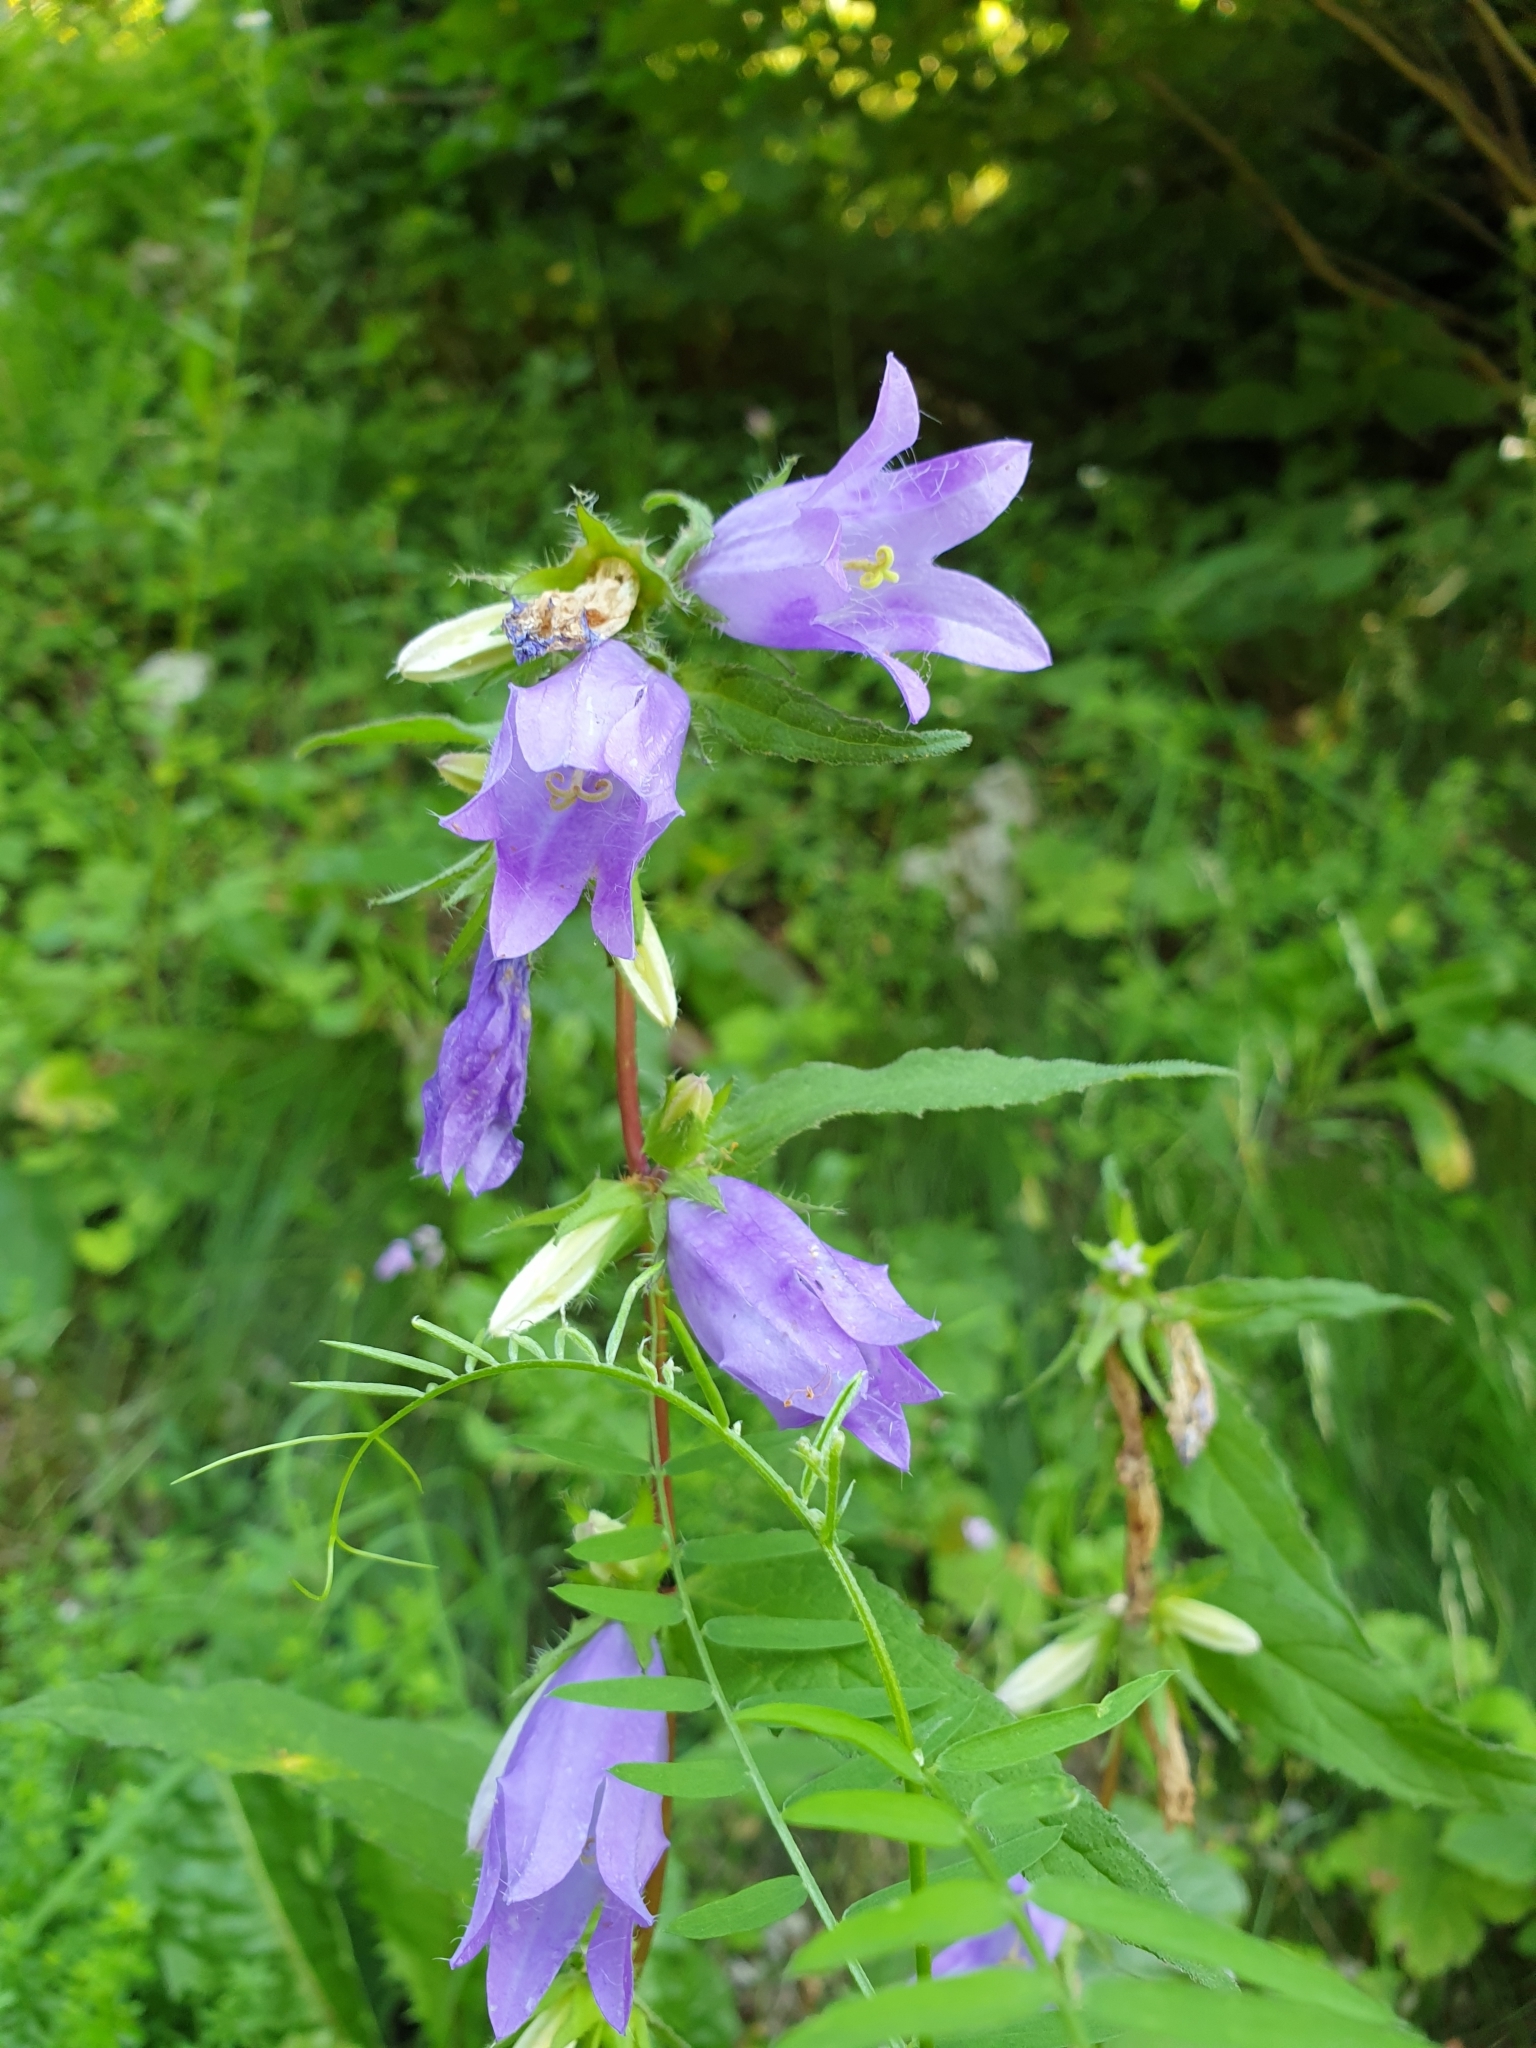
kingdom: Plantae
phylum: Tracheophyta
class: Magnoliopsida
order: Asterales
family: Campanulaceae
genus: Campanula
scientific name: Campanula trachelium
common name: Nettle-leaved bellflower
